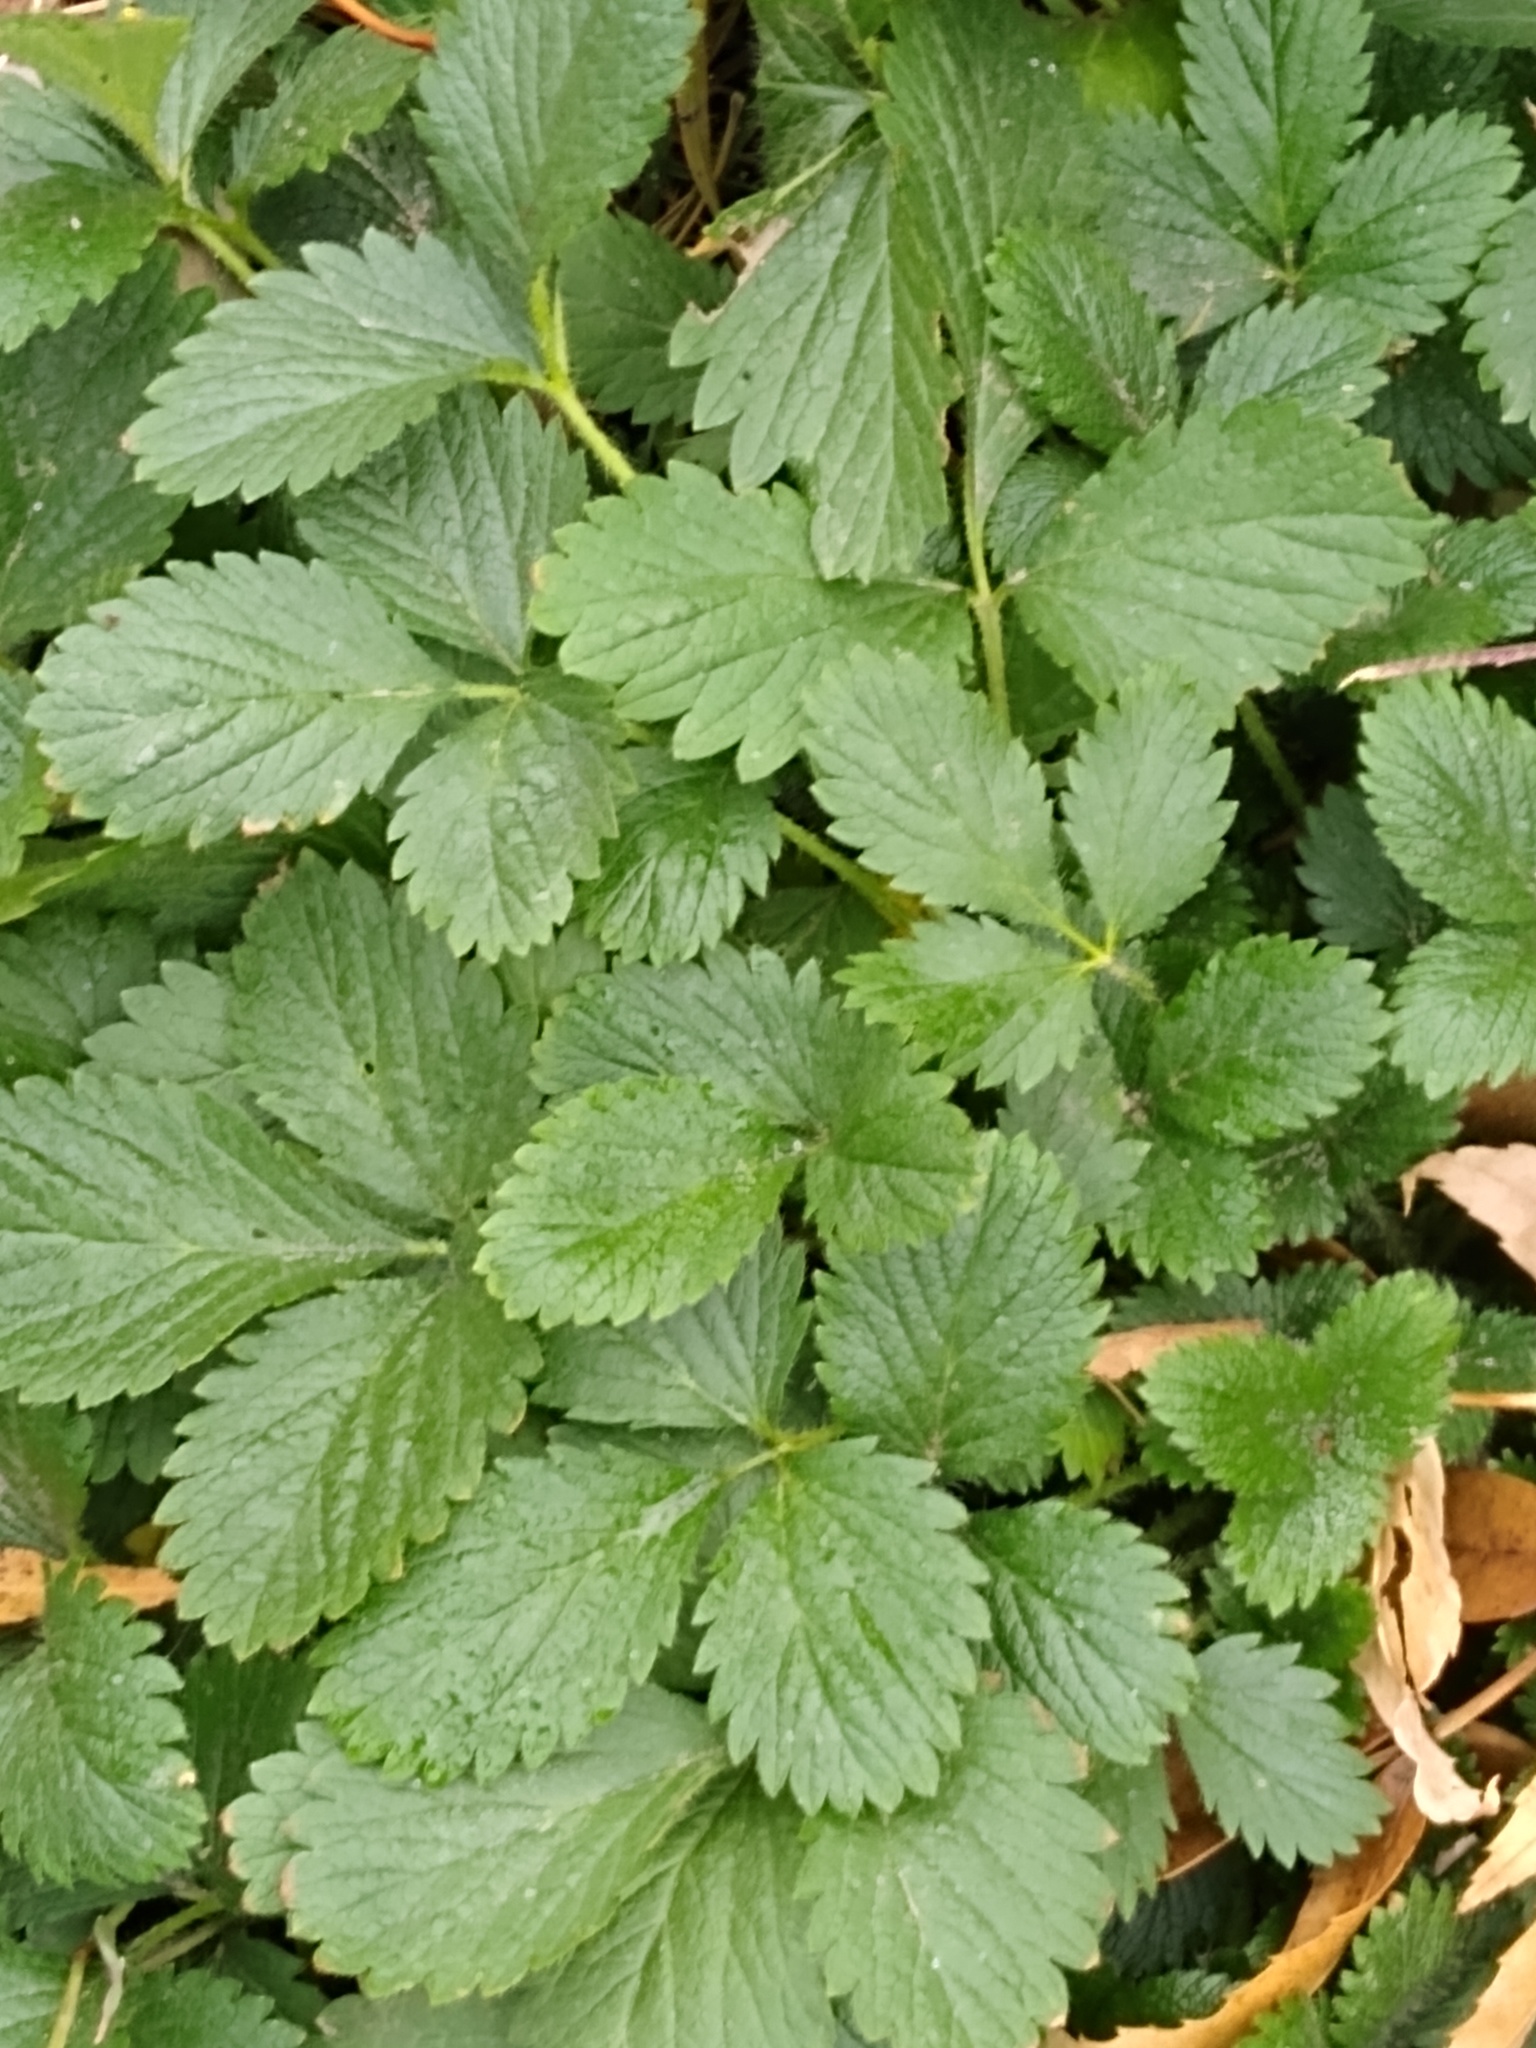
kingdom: Plantae
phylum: Tracheophyta
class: Magnoliopsida
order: Rosales
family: Rosaceae
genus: Potentilla
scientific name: Potentilla indica
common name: Yellow-flowered strawberry
